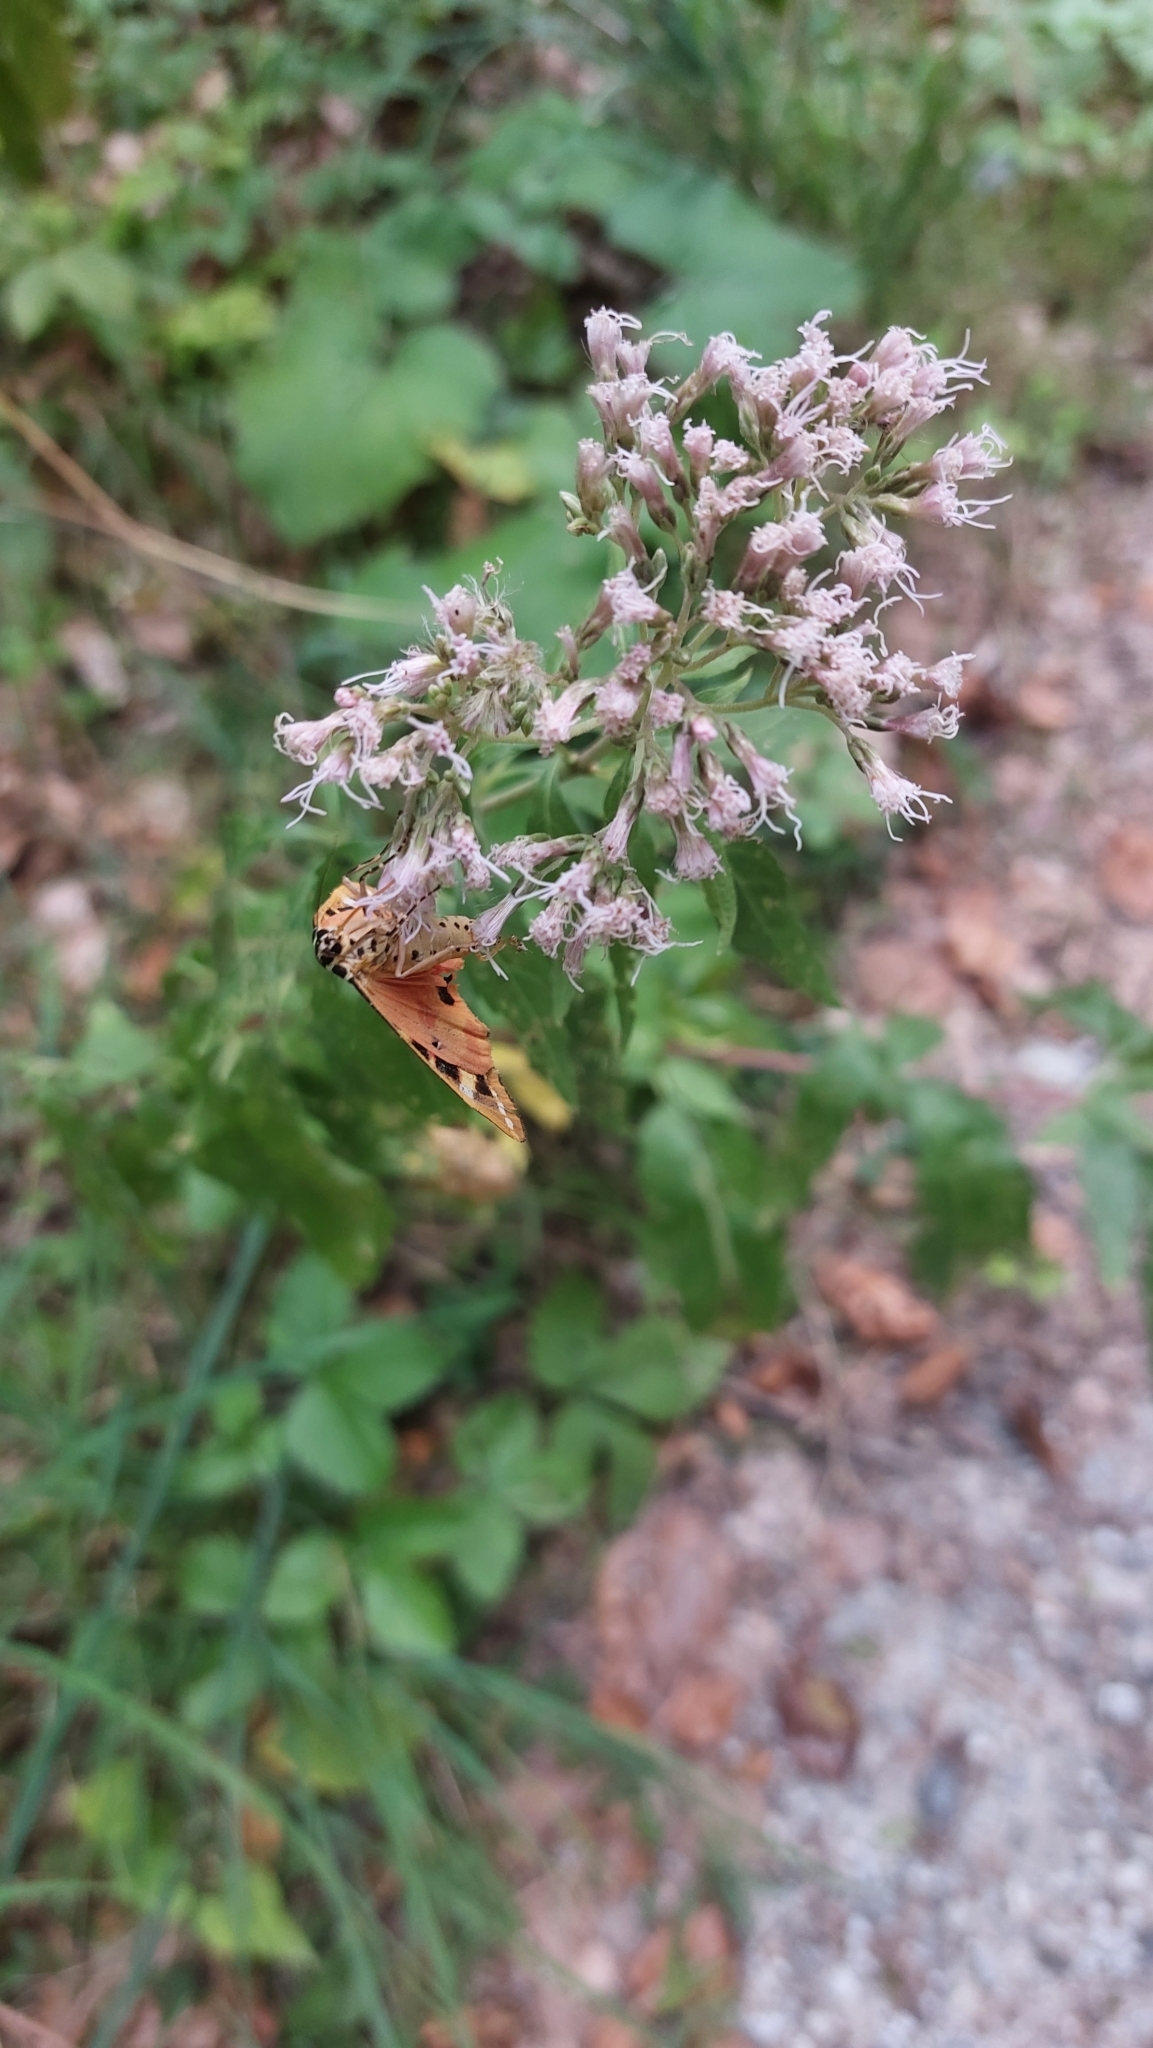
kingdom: Animalia
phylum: Arthropoda
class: Insecta
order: Lepidoptera
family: Erebidae
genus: Euplagia
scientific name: Euplagia quadripunctaria
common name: Jersey tiger
